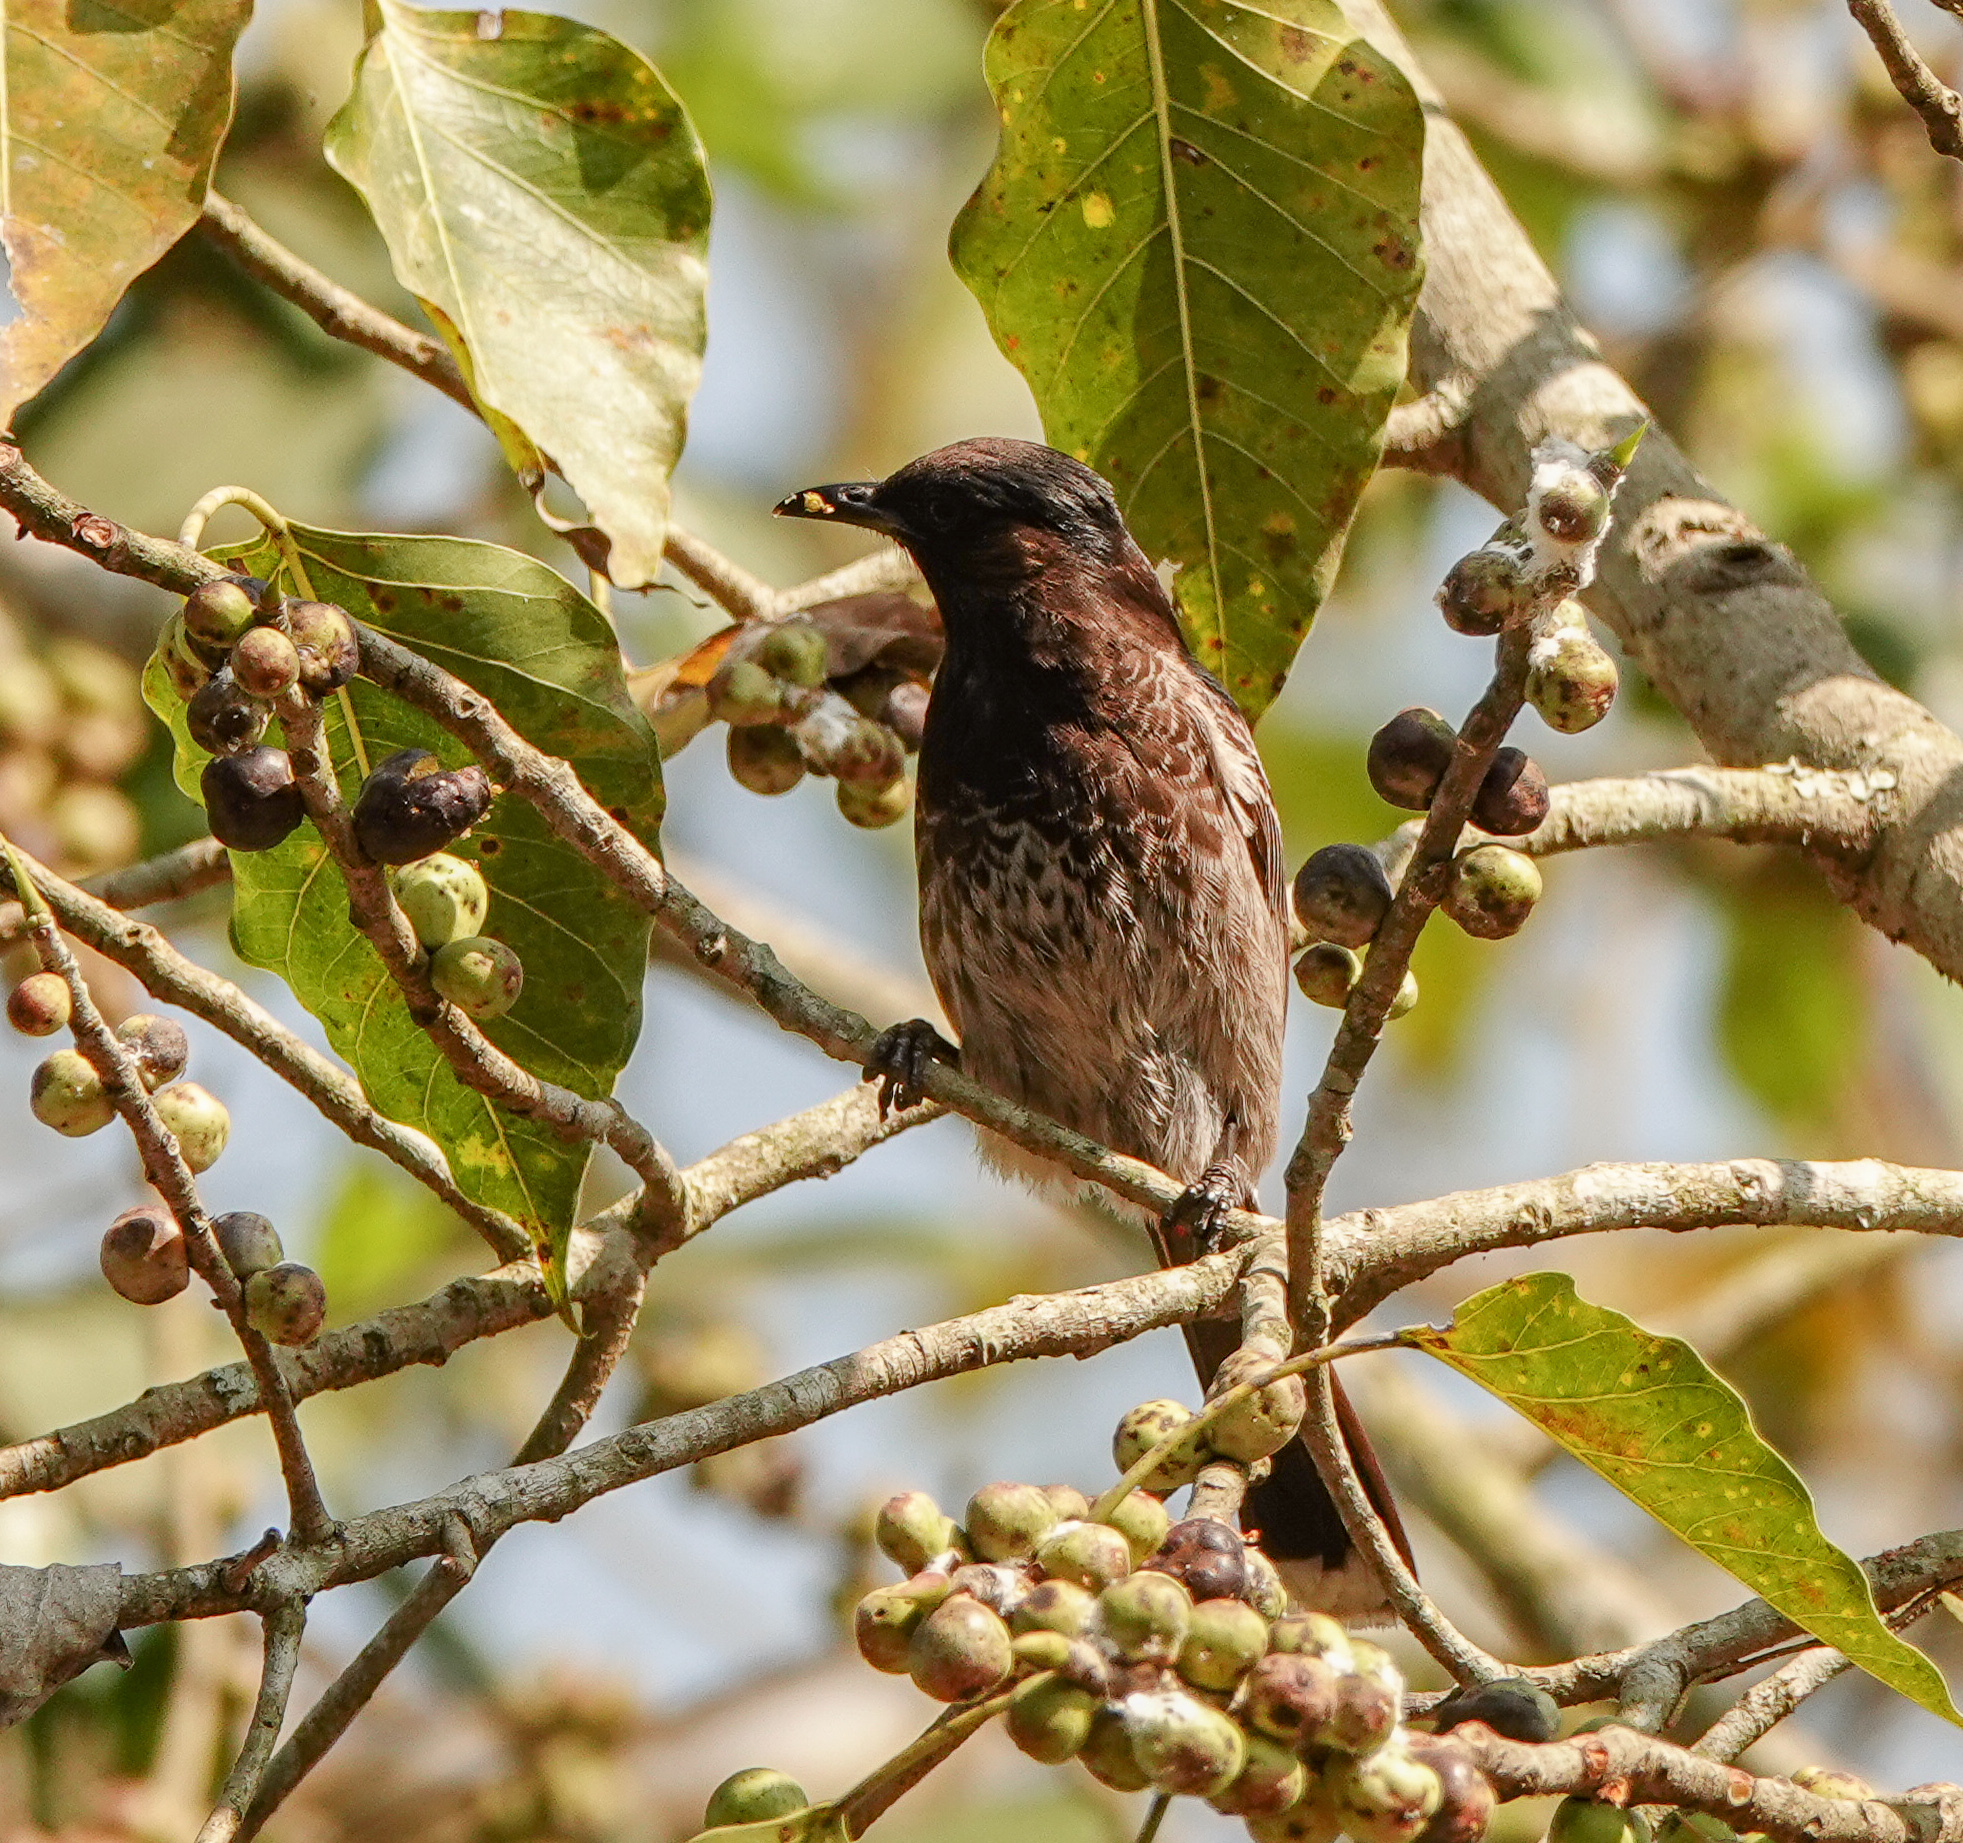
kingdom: Animalia
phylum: Chordata
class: Aves
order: Passeriformes
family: Pycnonotidae
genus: Pycnonotus
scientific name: Pycnonotus cafer
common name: Red-vented bulbul
